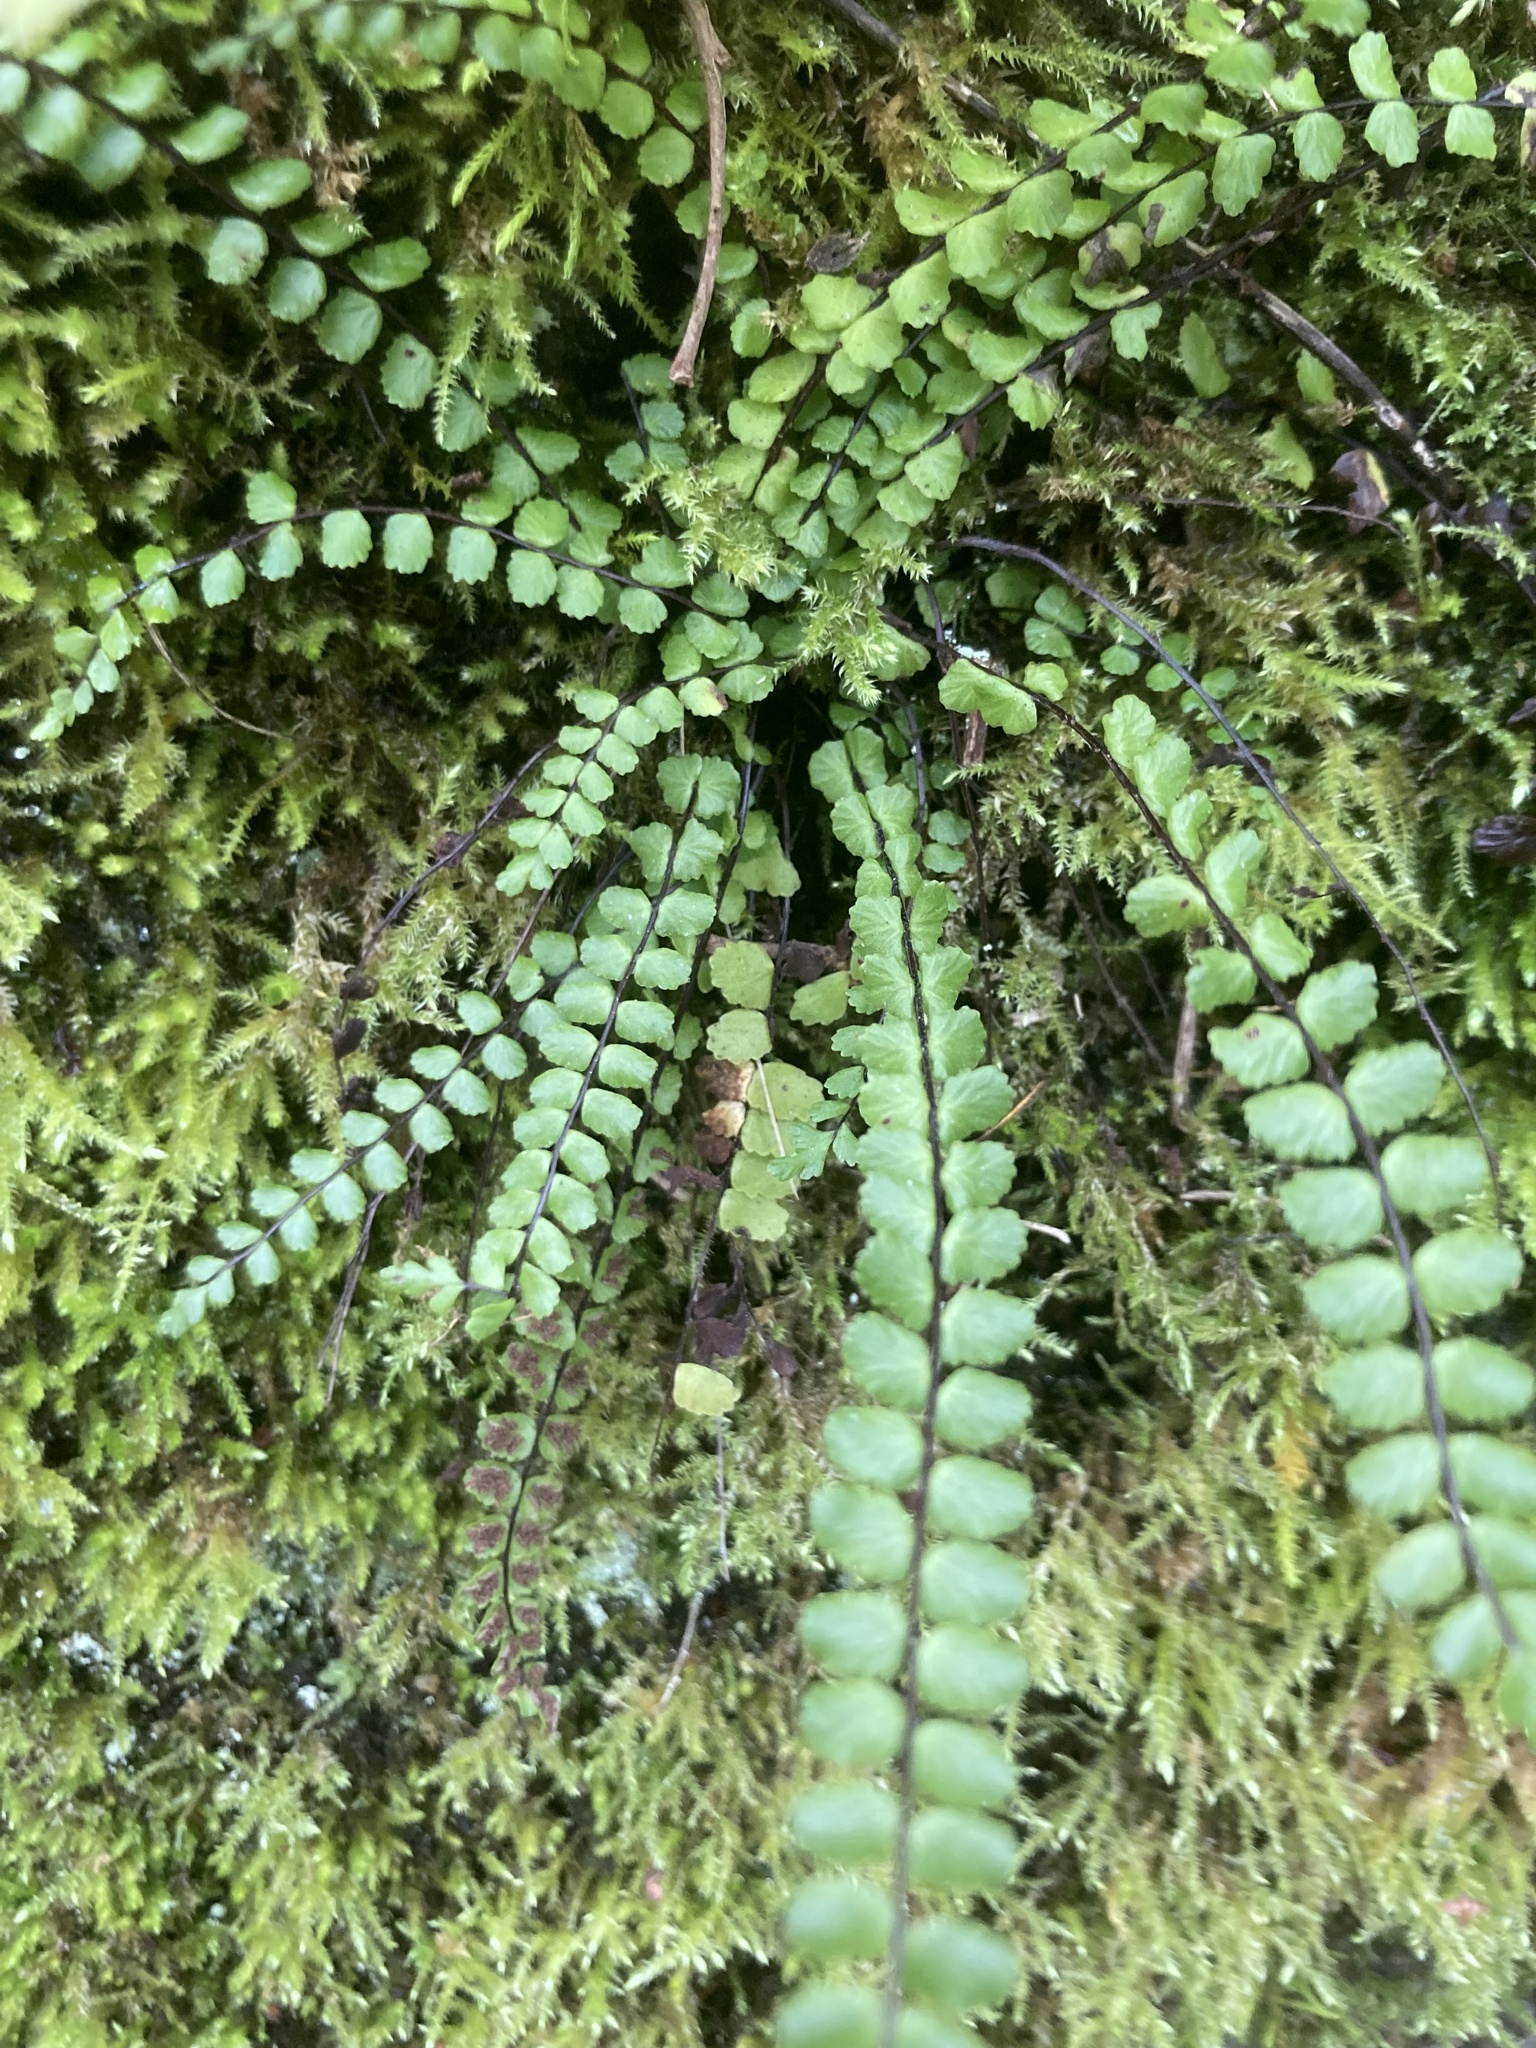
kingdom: Plantae
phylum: Tracheophyta
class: Polypodiopsida
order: Polypodiales
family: Aspleniaceae
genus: Asplenium
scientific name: Asplenium trichomanes
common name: Maidenhair spleenwort
